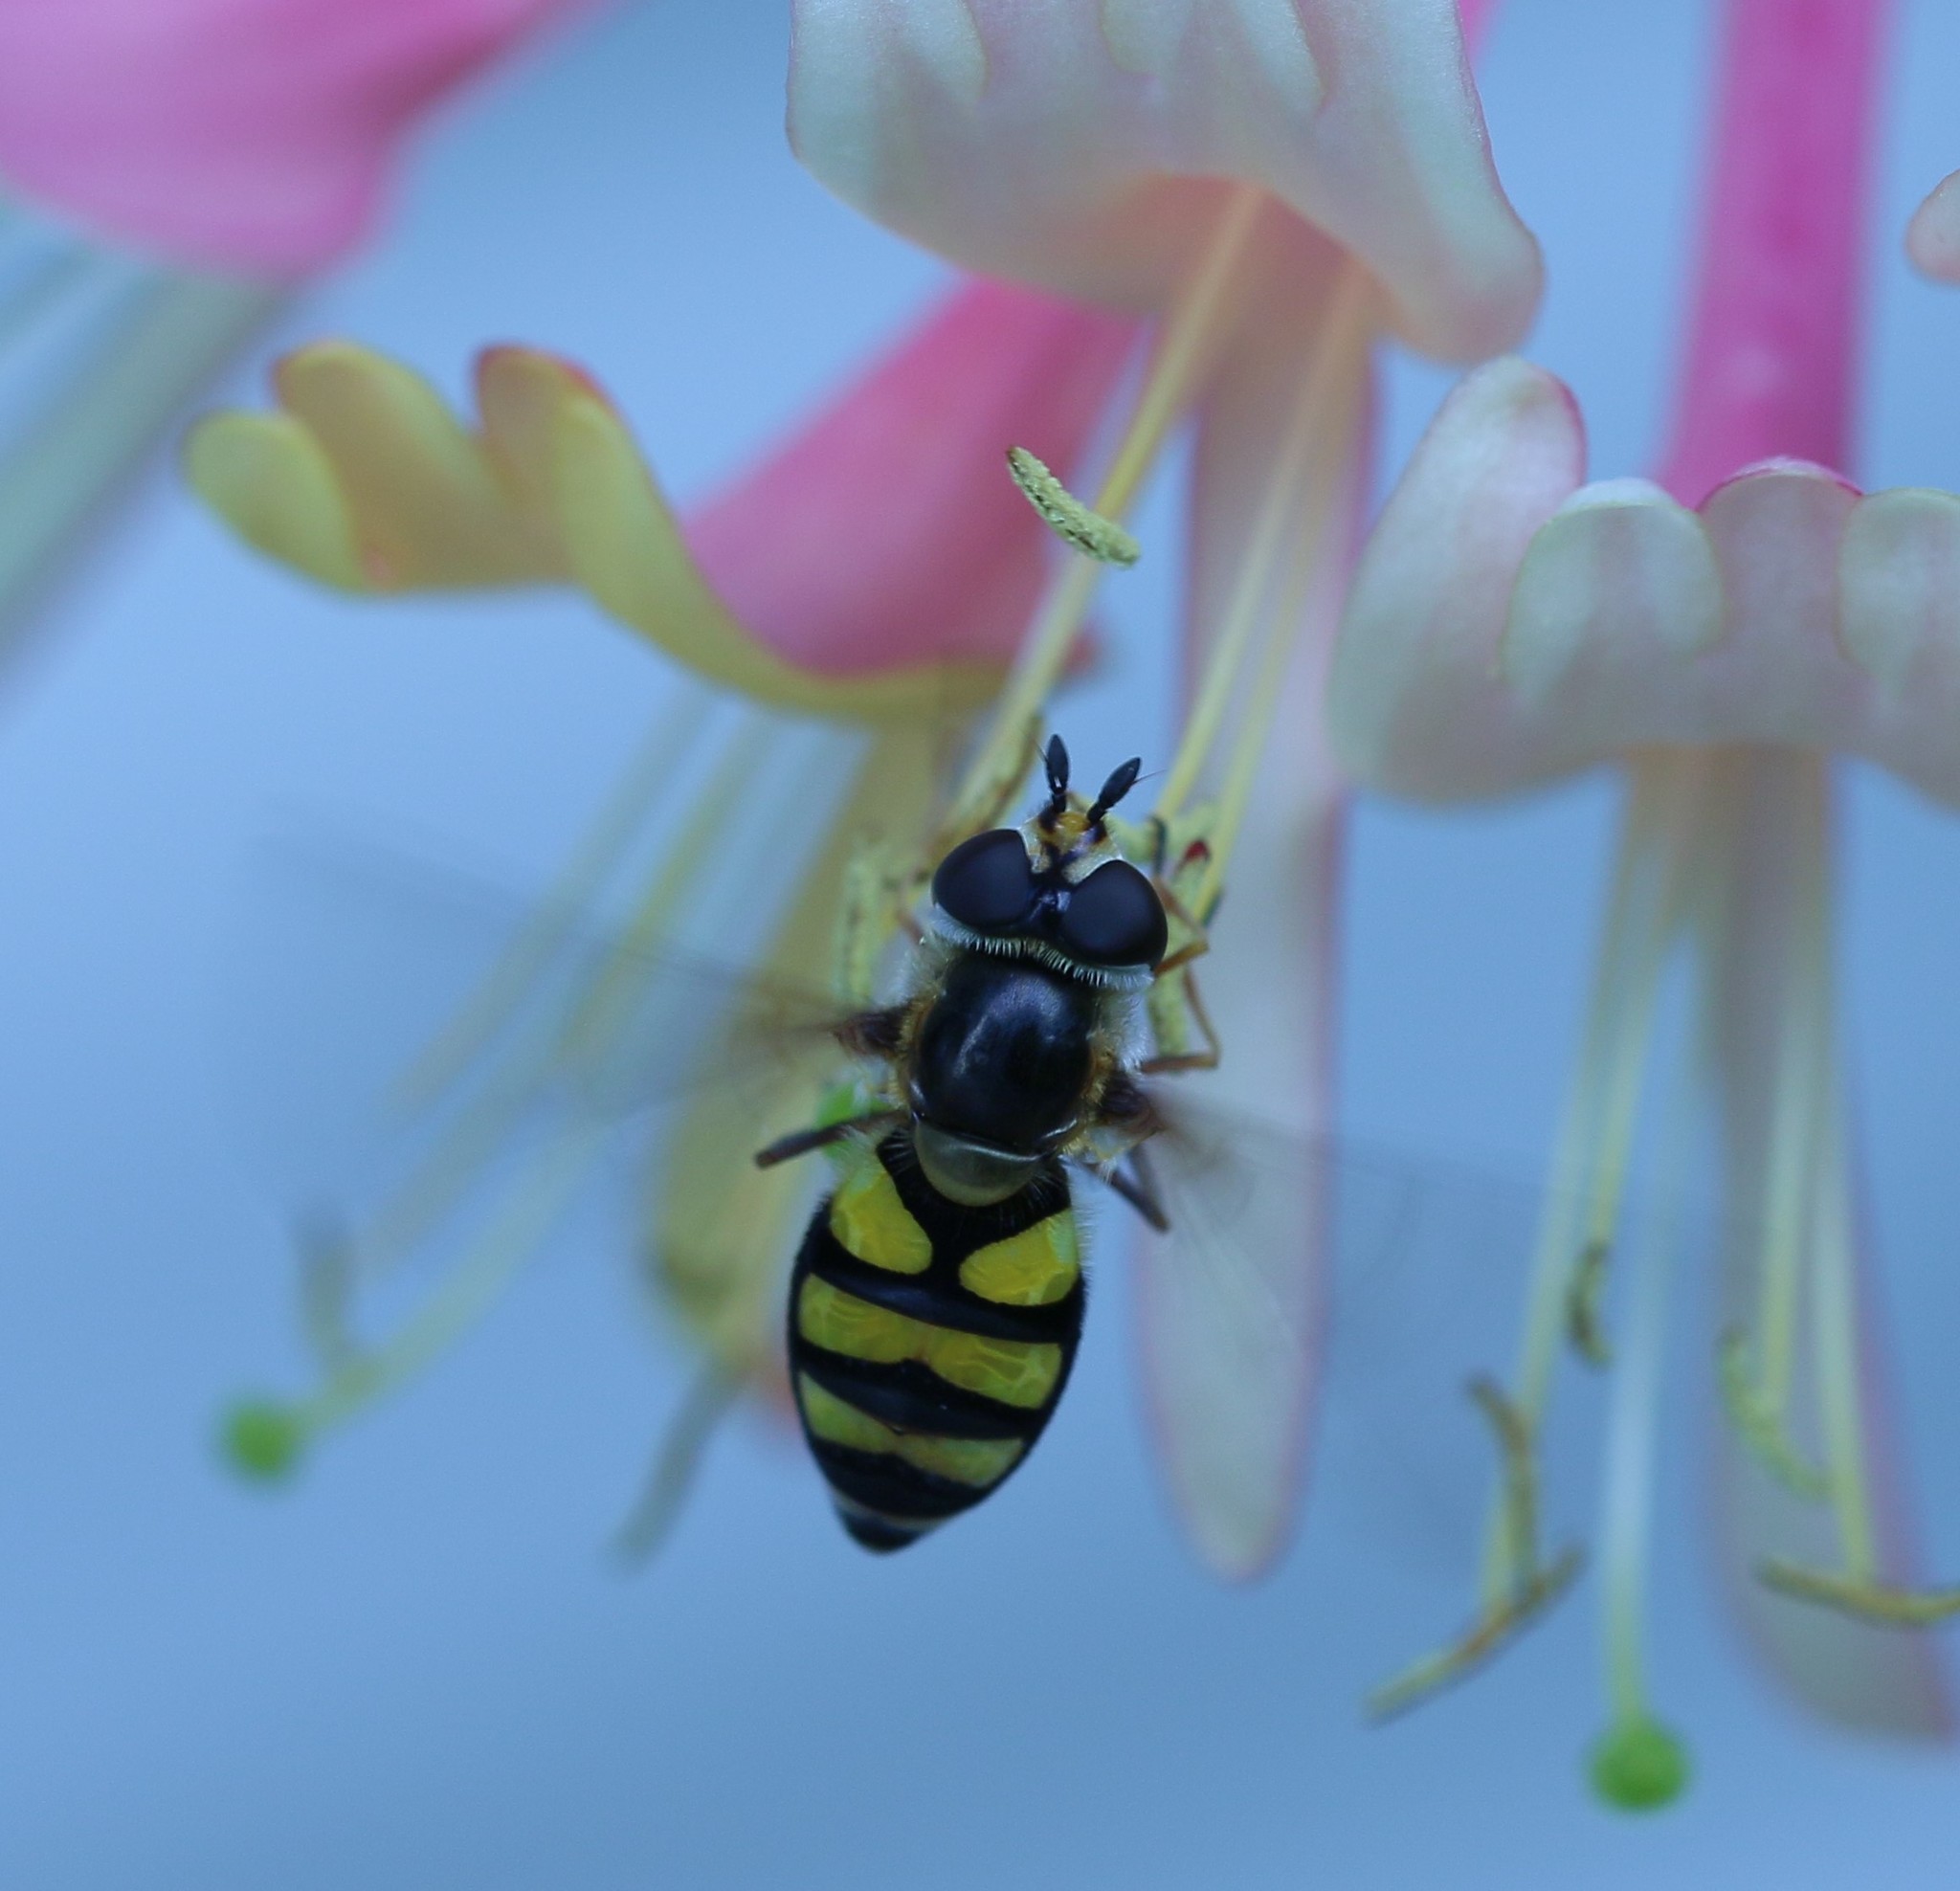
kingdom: Animalia
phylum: Arthropoda
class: Insecta
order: Diptera
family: Syrphidae
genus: Didea
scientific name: Didea fuscipes
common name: Undivided lucent
